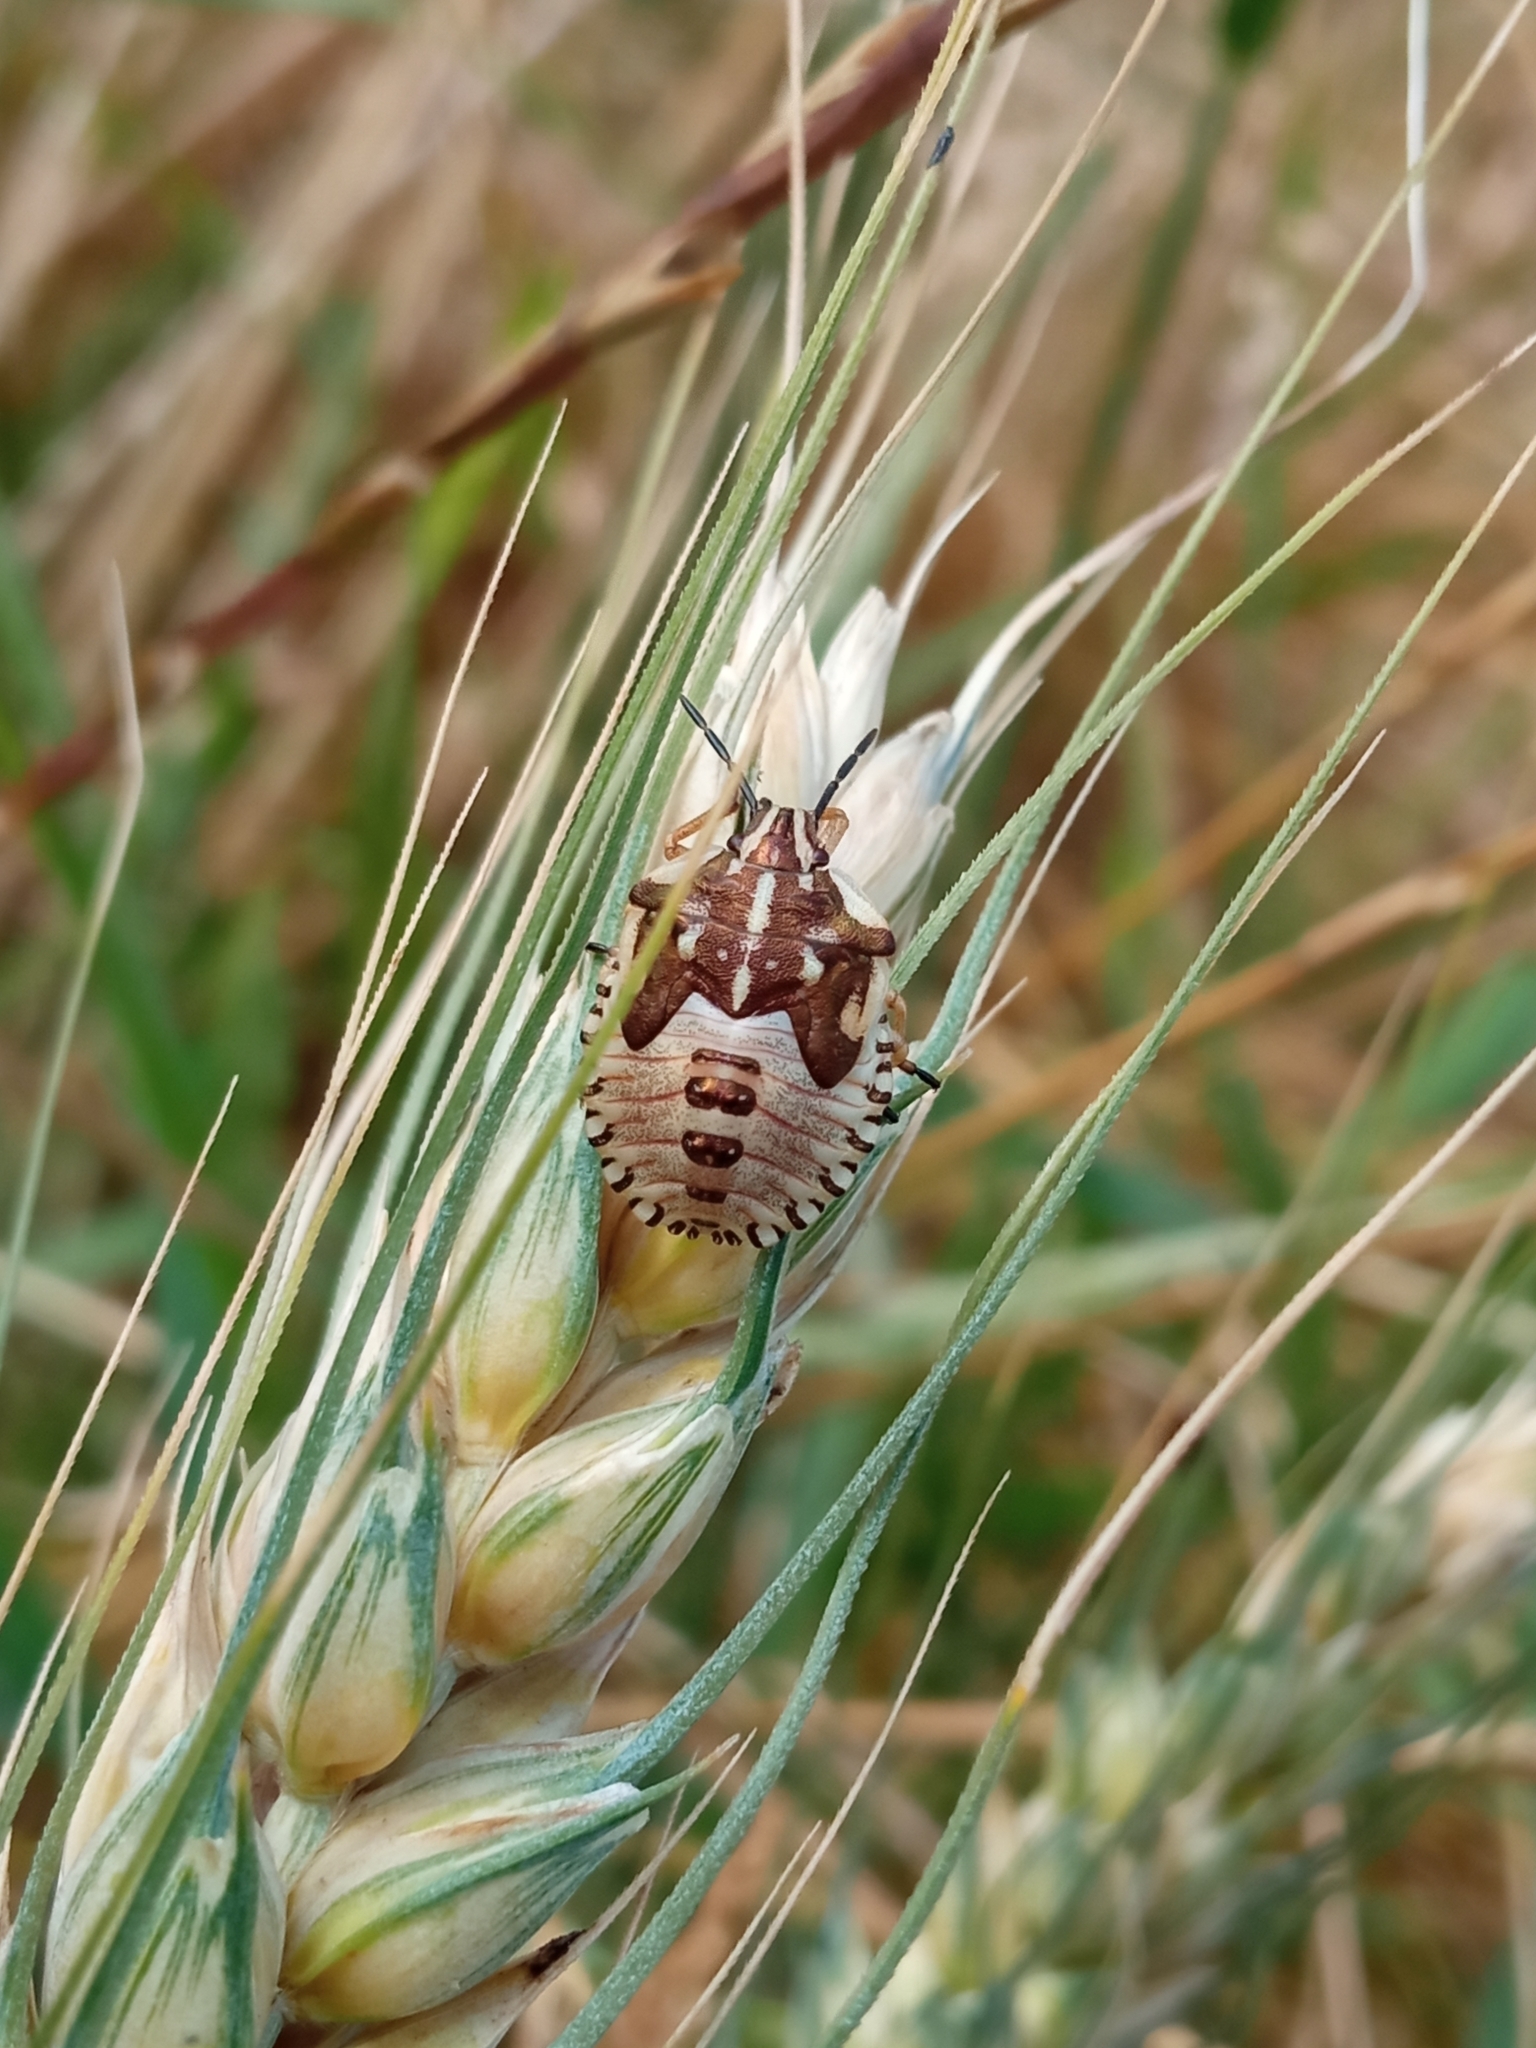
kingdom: Animalia
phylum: Arthropoda
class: Insecta
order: Hemiptera
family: Pentatomidae
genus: Carpocoris
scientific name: Carpocoris purpureipennis
